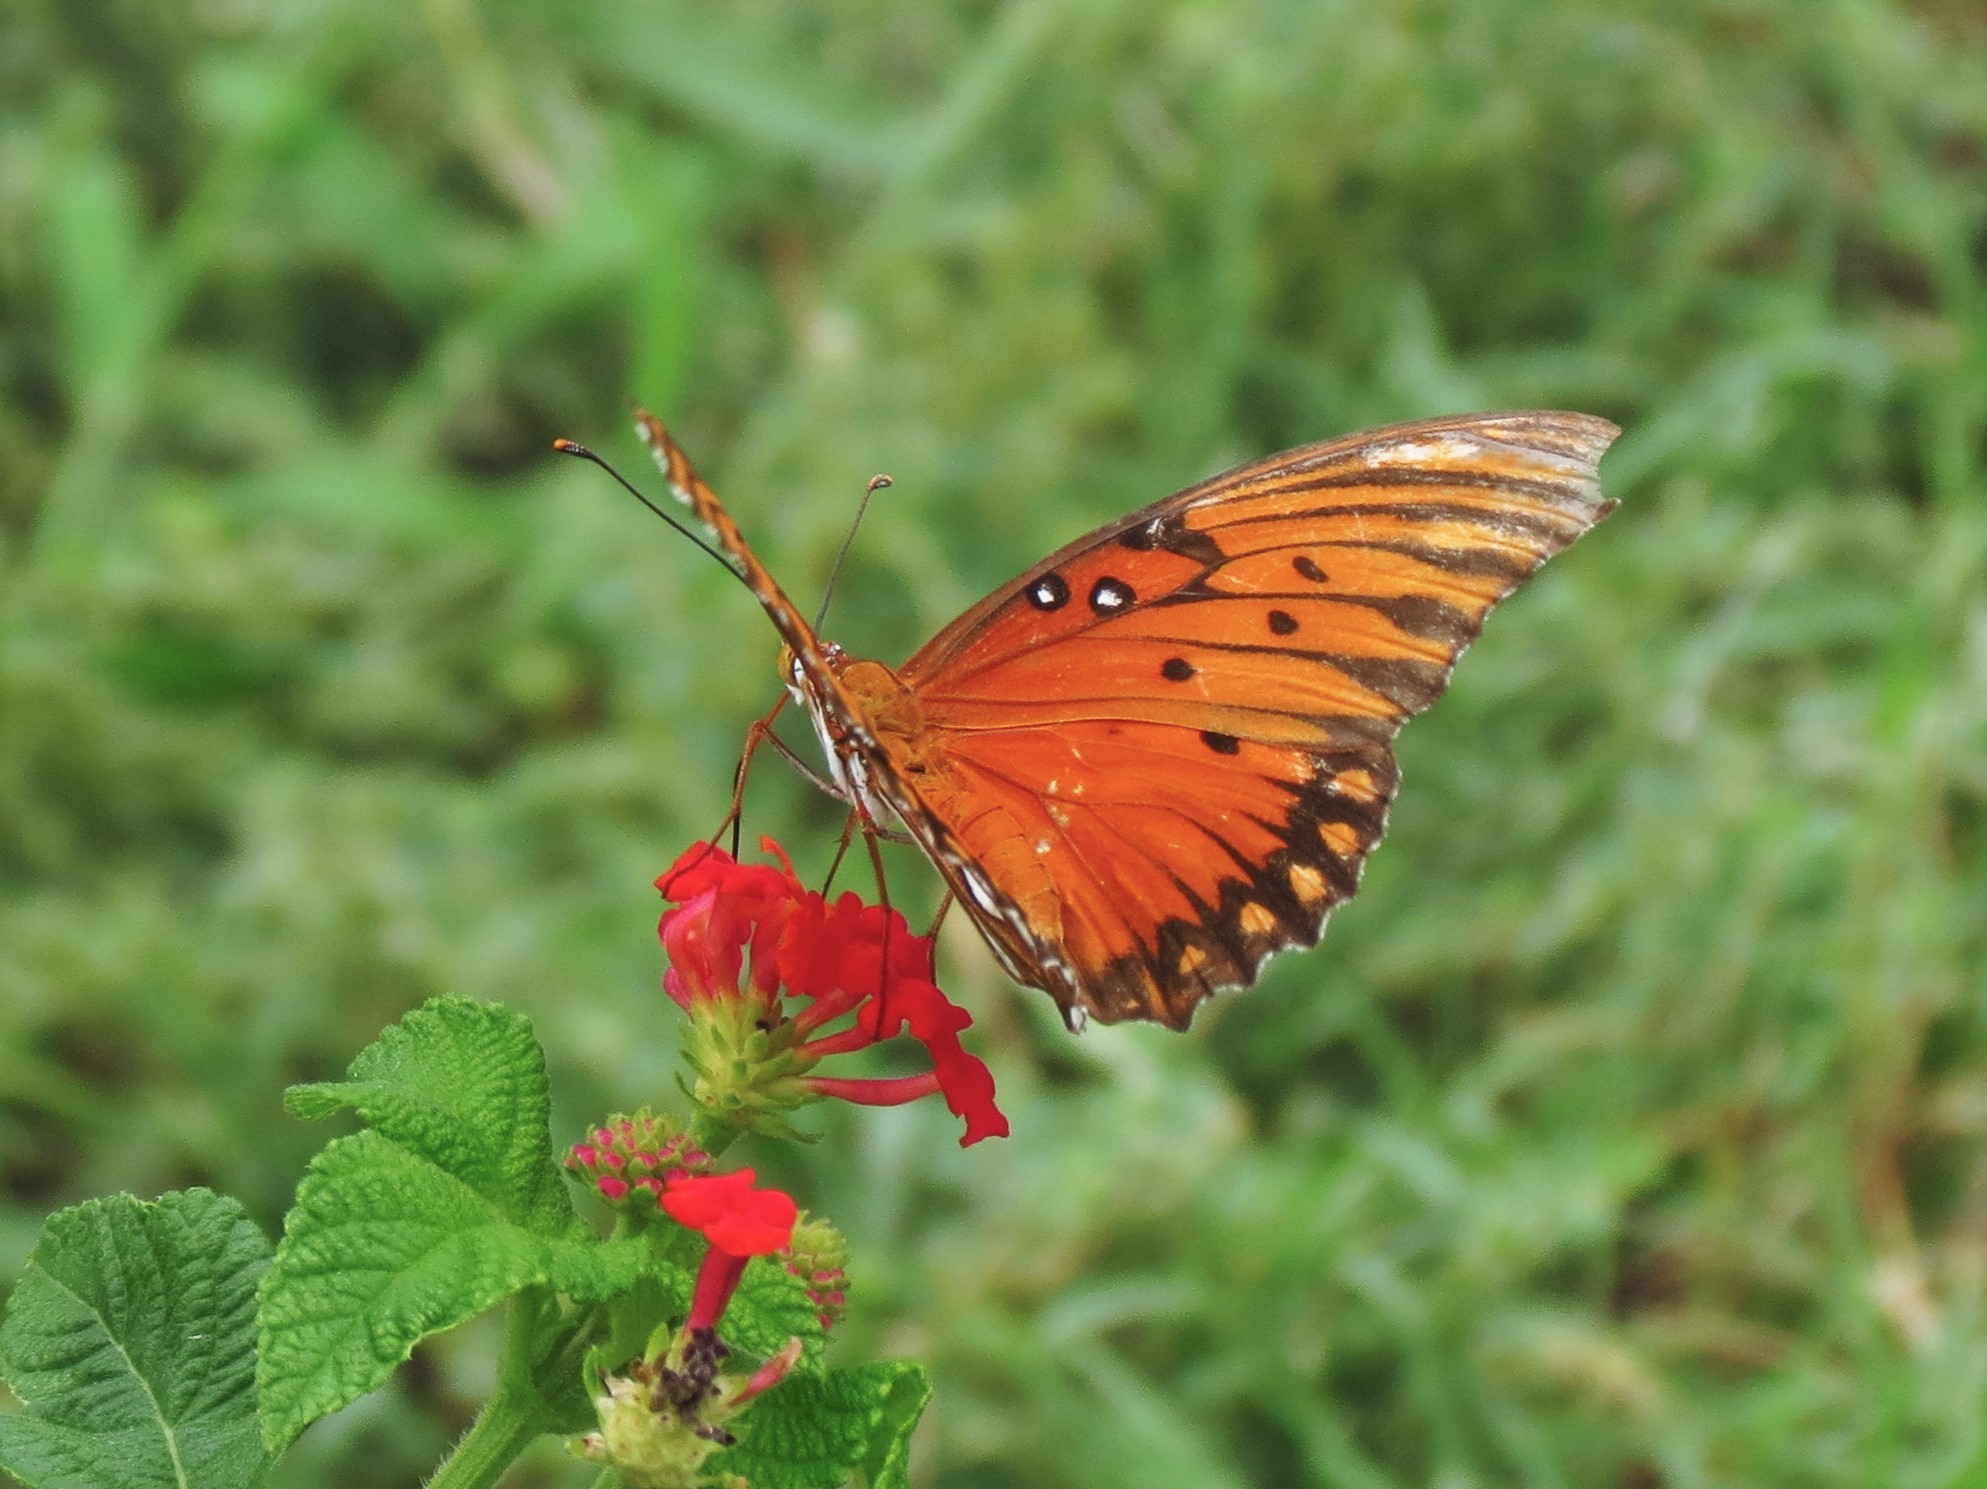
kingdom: Animalia
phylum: Arthropoda
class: Insecta
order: Lepidoptera
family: Nymphalidae
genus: Dione
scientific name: Dione vanillae
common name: Gulf fritillary
